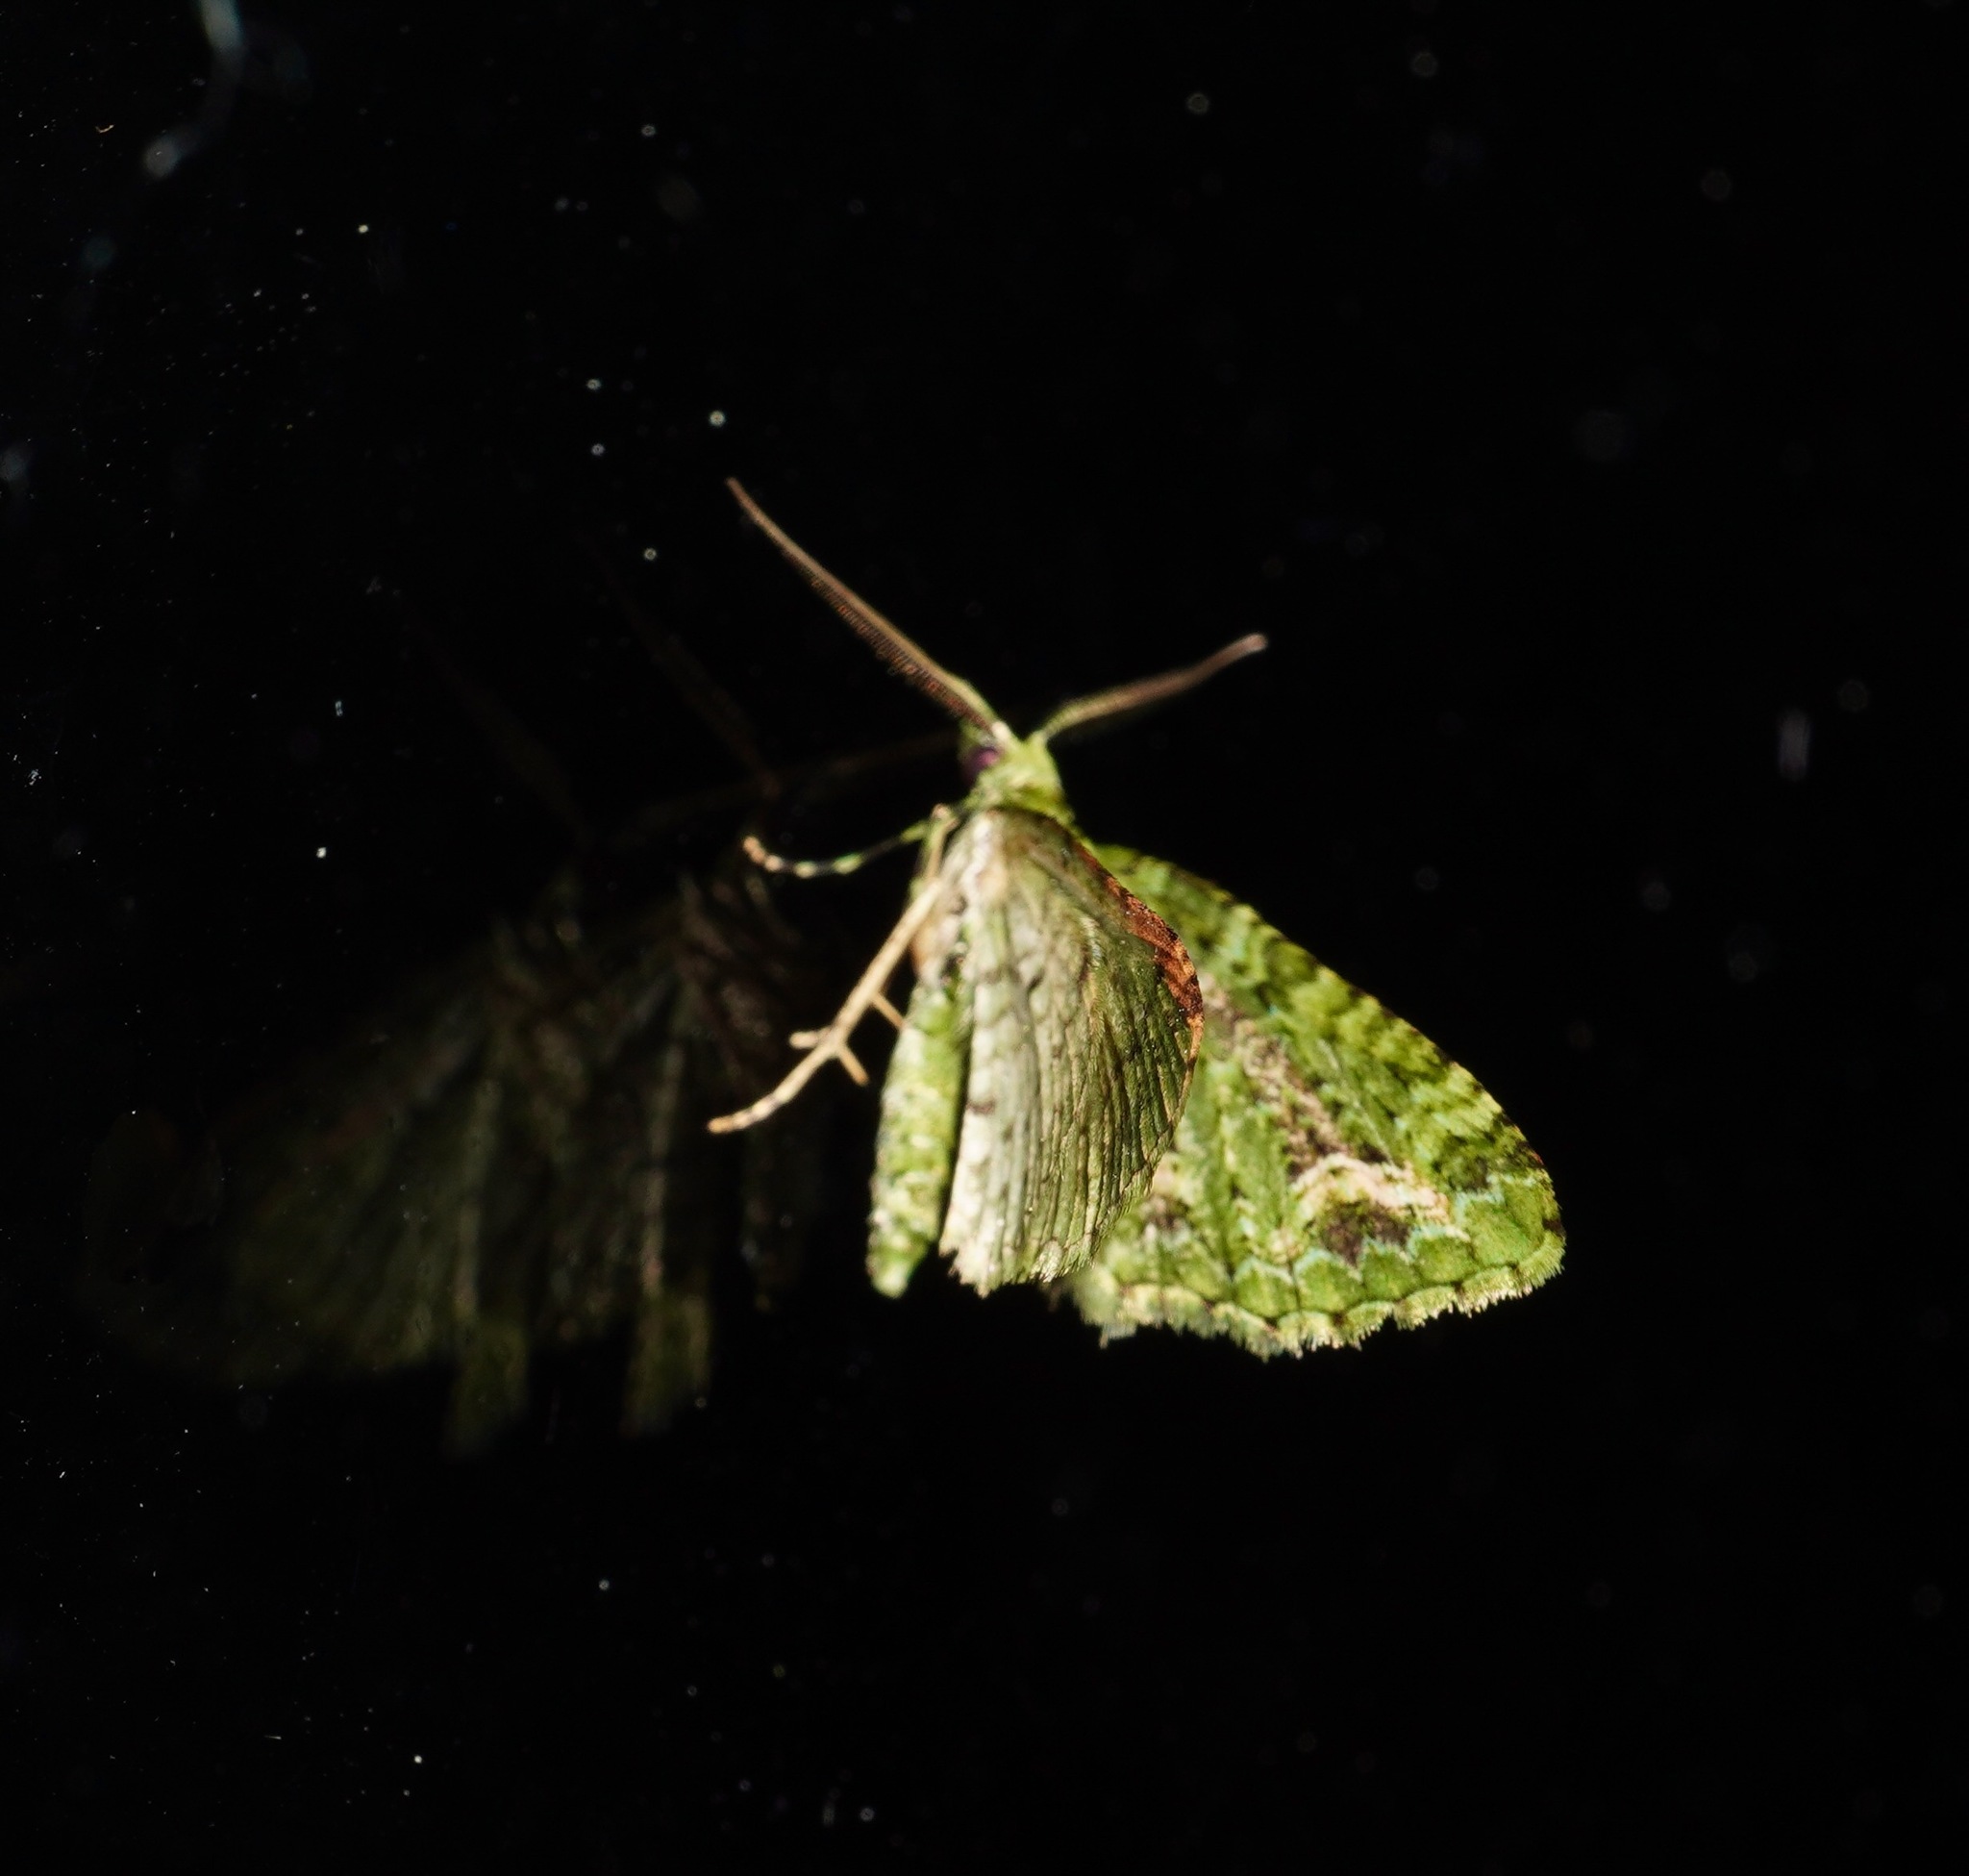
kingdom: Animalia
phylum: Arthropoda
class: Insecta
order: Lepidoptera
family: Geometridae
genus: Pasiphila
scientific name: Pasiphila muscosata
